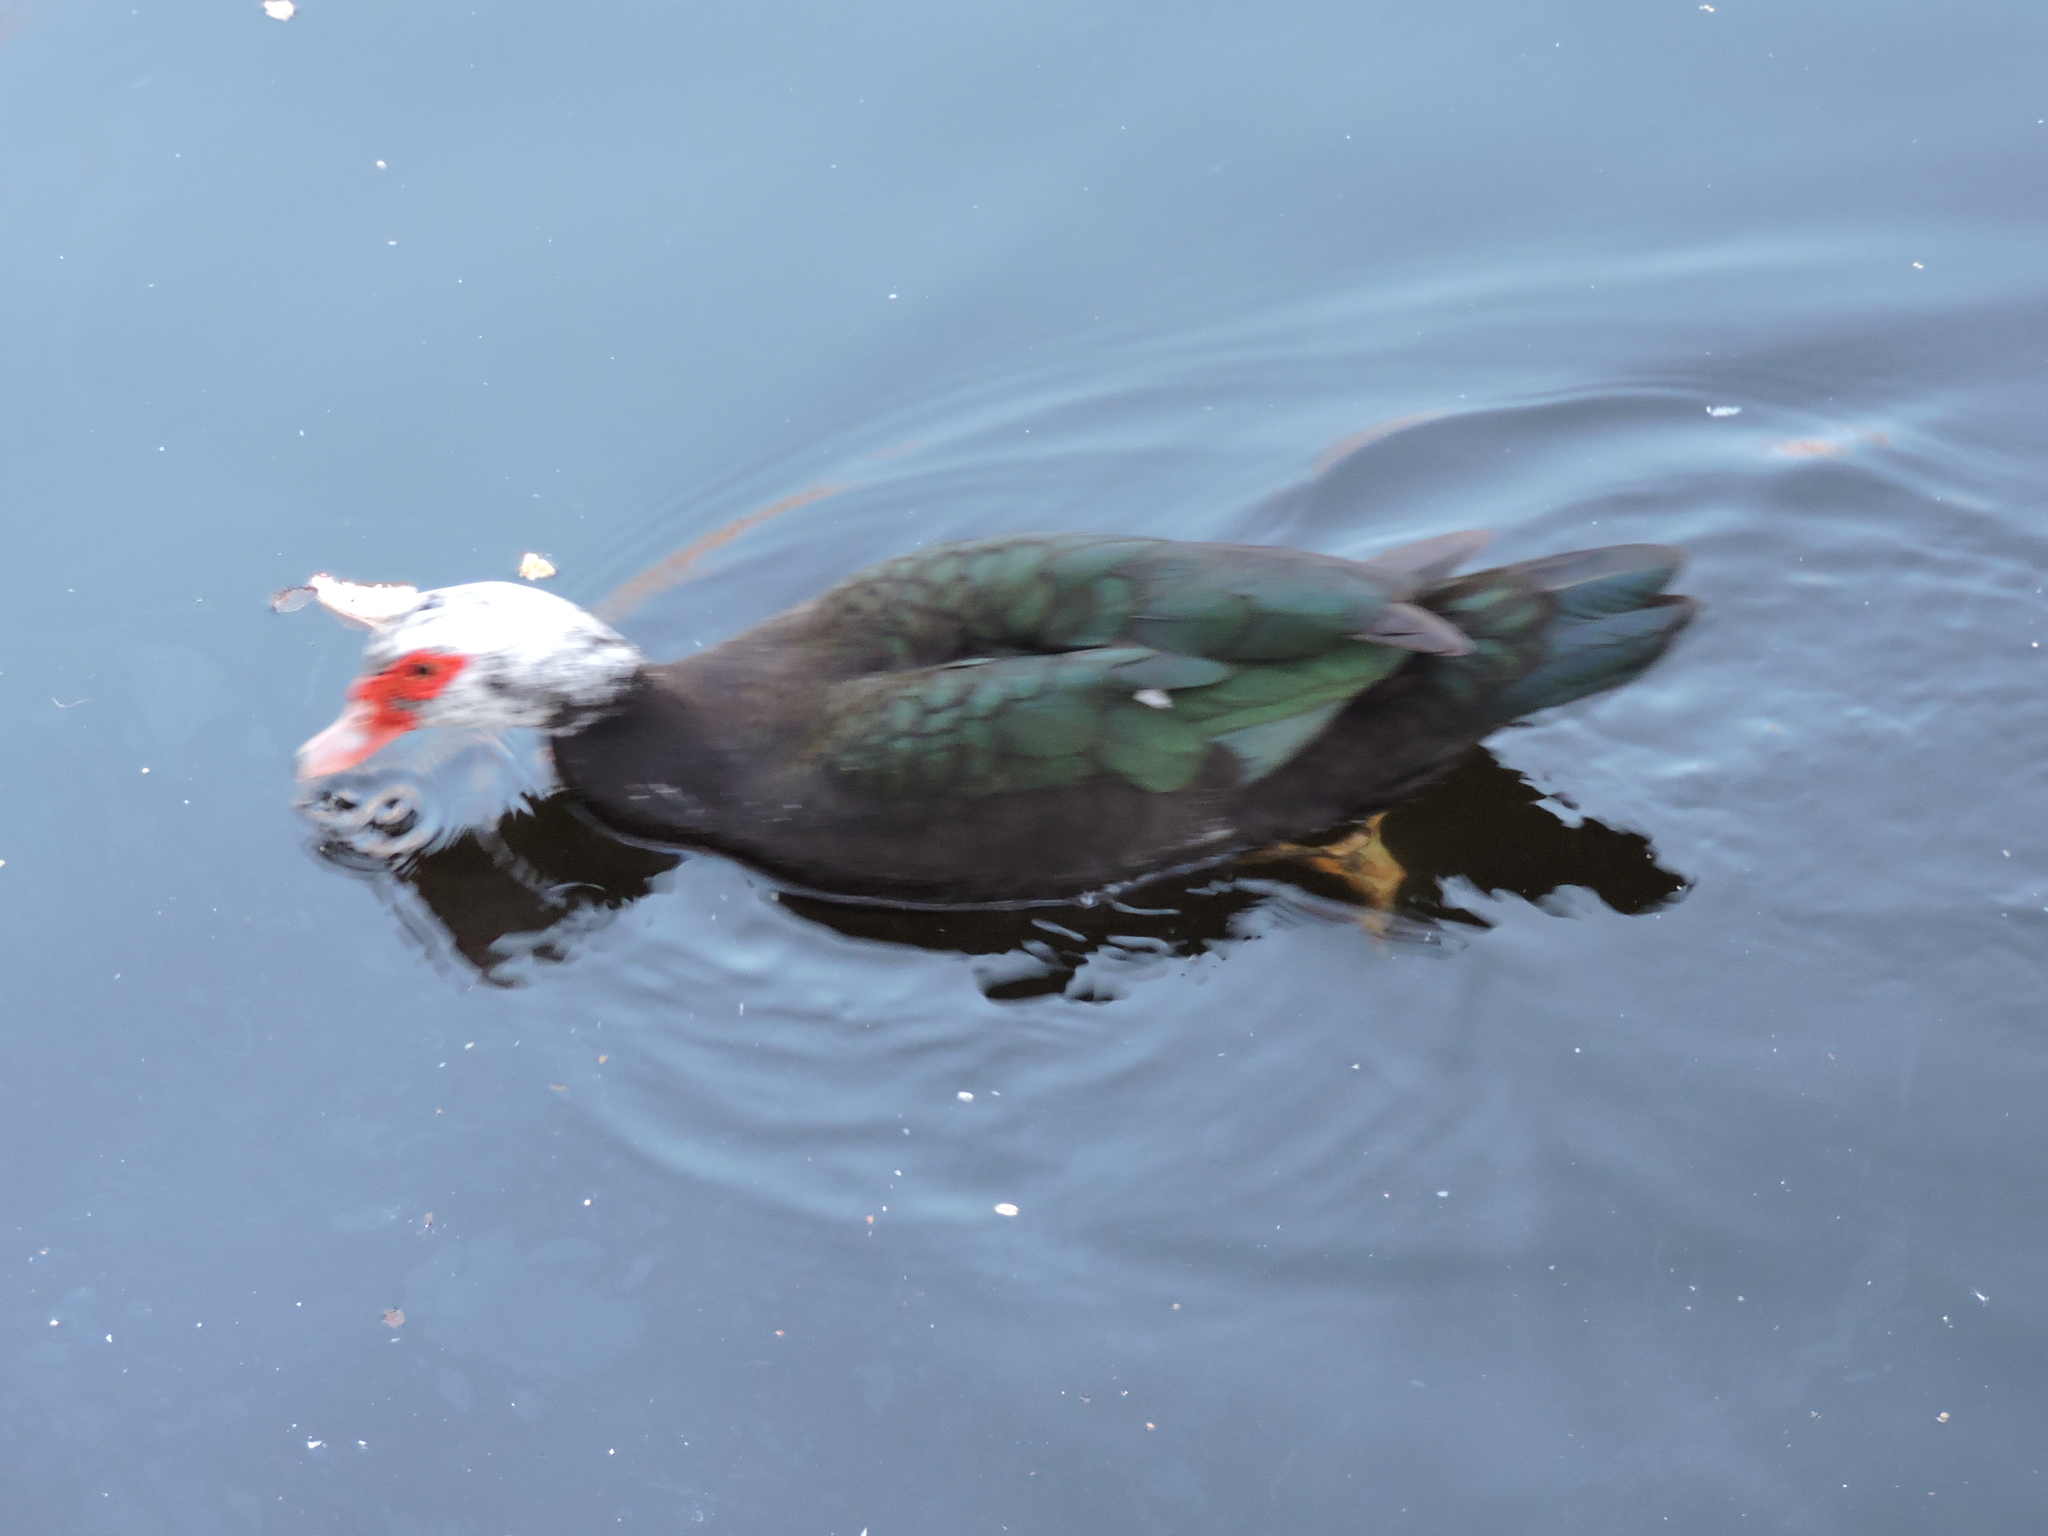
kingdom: Animalia
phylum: Chordata
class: Aves
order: Anseriformes
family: Anatidae
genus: Cairina
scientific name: Cairina moschata
